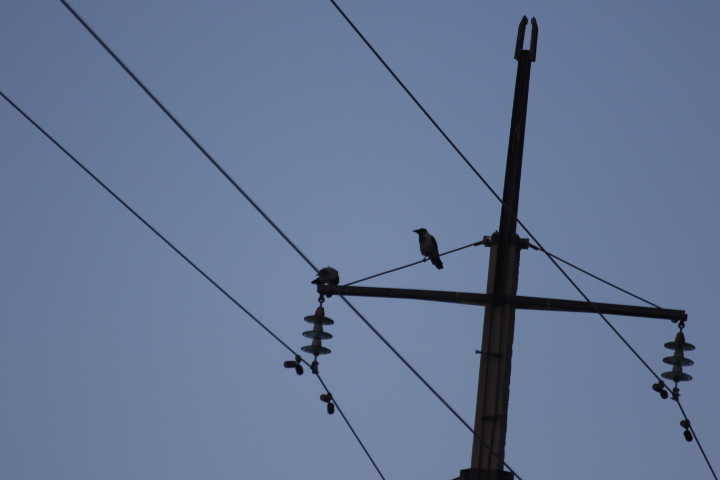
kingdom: Animalia
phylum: Chordata
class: Aves
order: Passeriformes
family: Corvidae
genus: Corvus
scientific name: Corvus cornix
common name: Hooded crow
